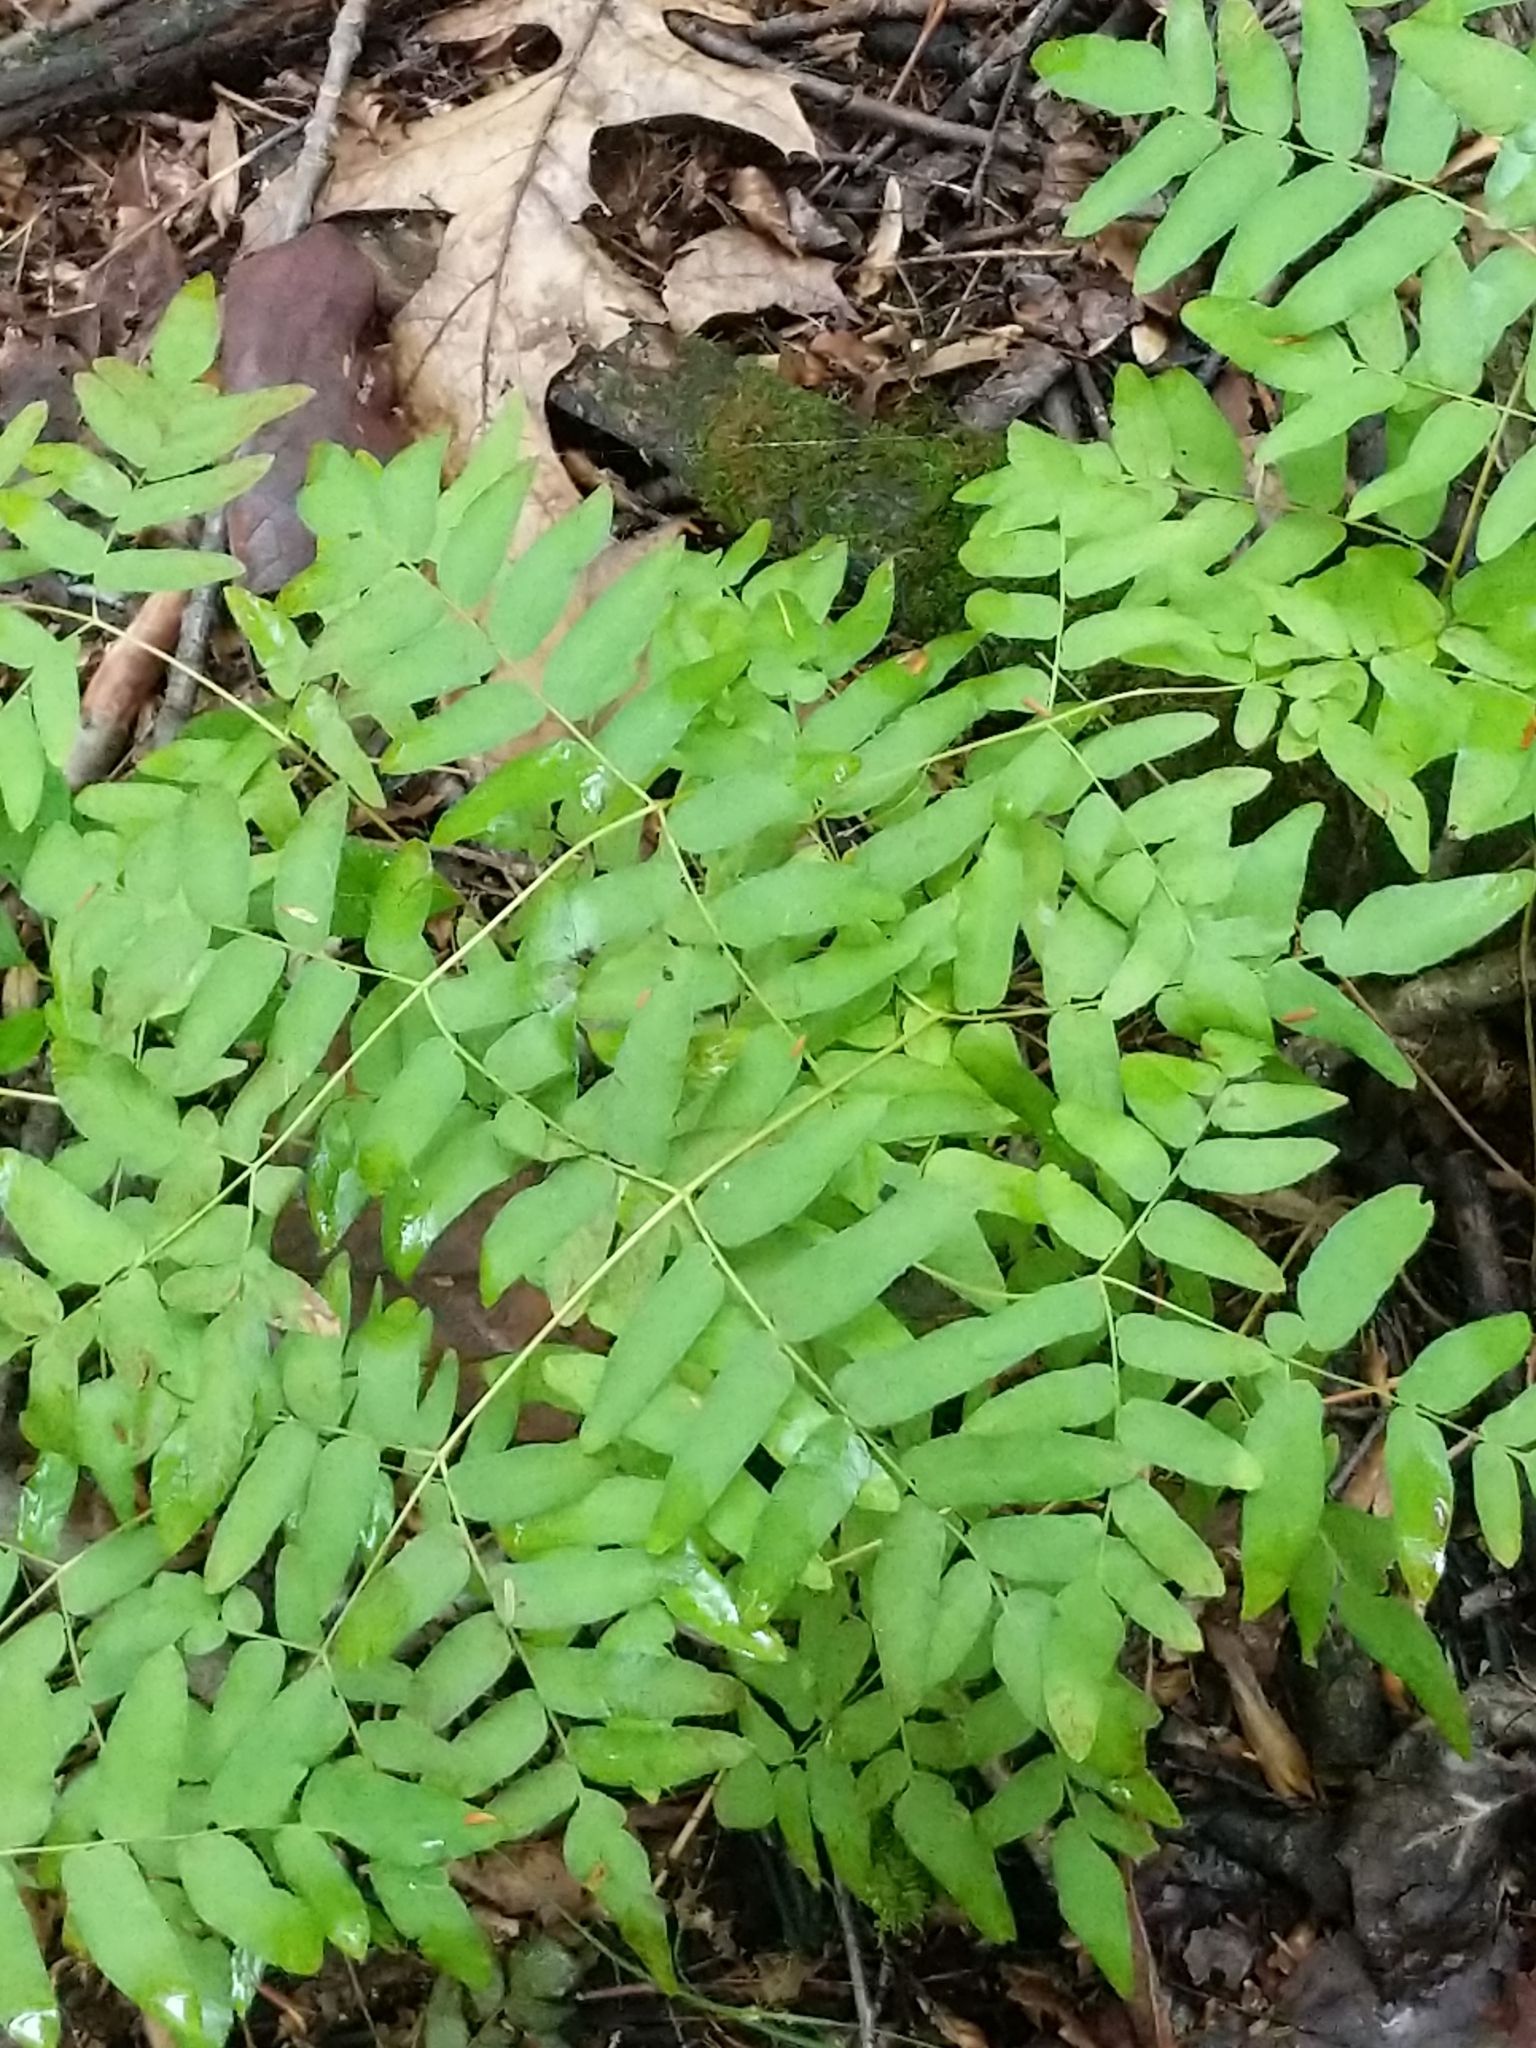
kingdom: Plantae
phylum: Tracheophyta
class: Polypodiopsida
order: Osmundales
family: Osmundaceae
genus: Osmunda
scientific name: Osmunda spectabilis
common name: American royal fern
